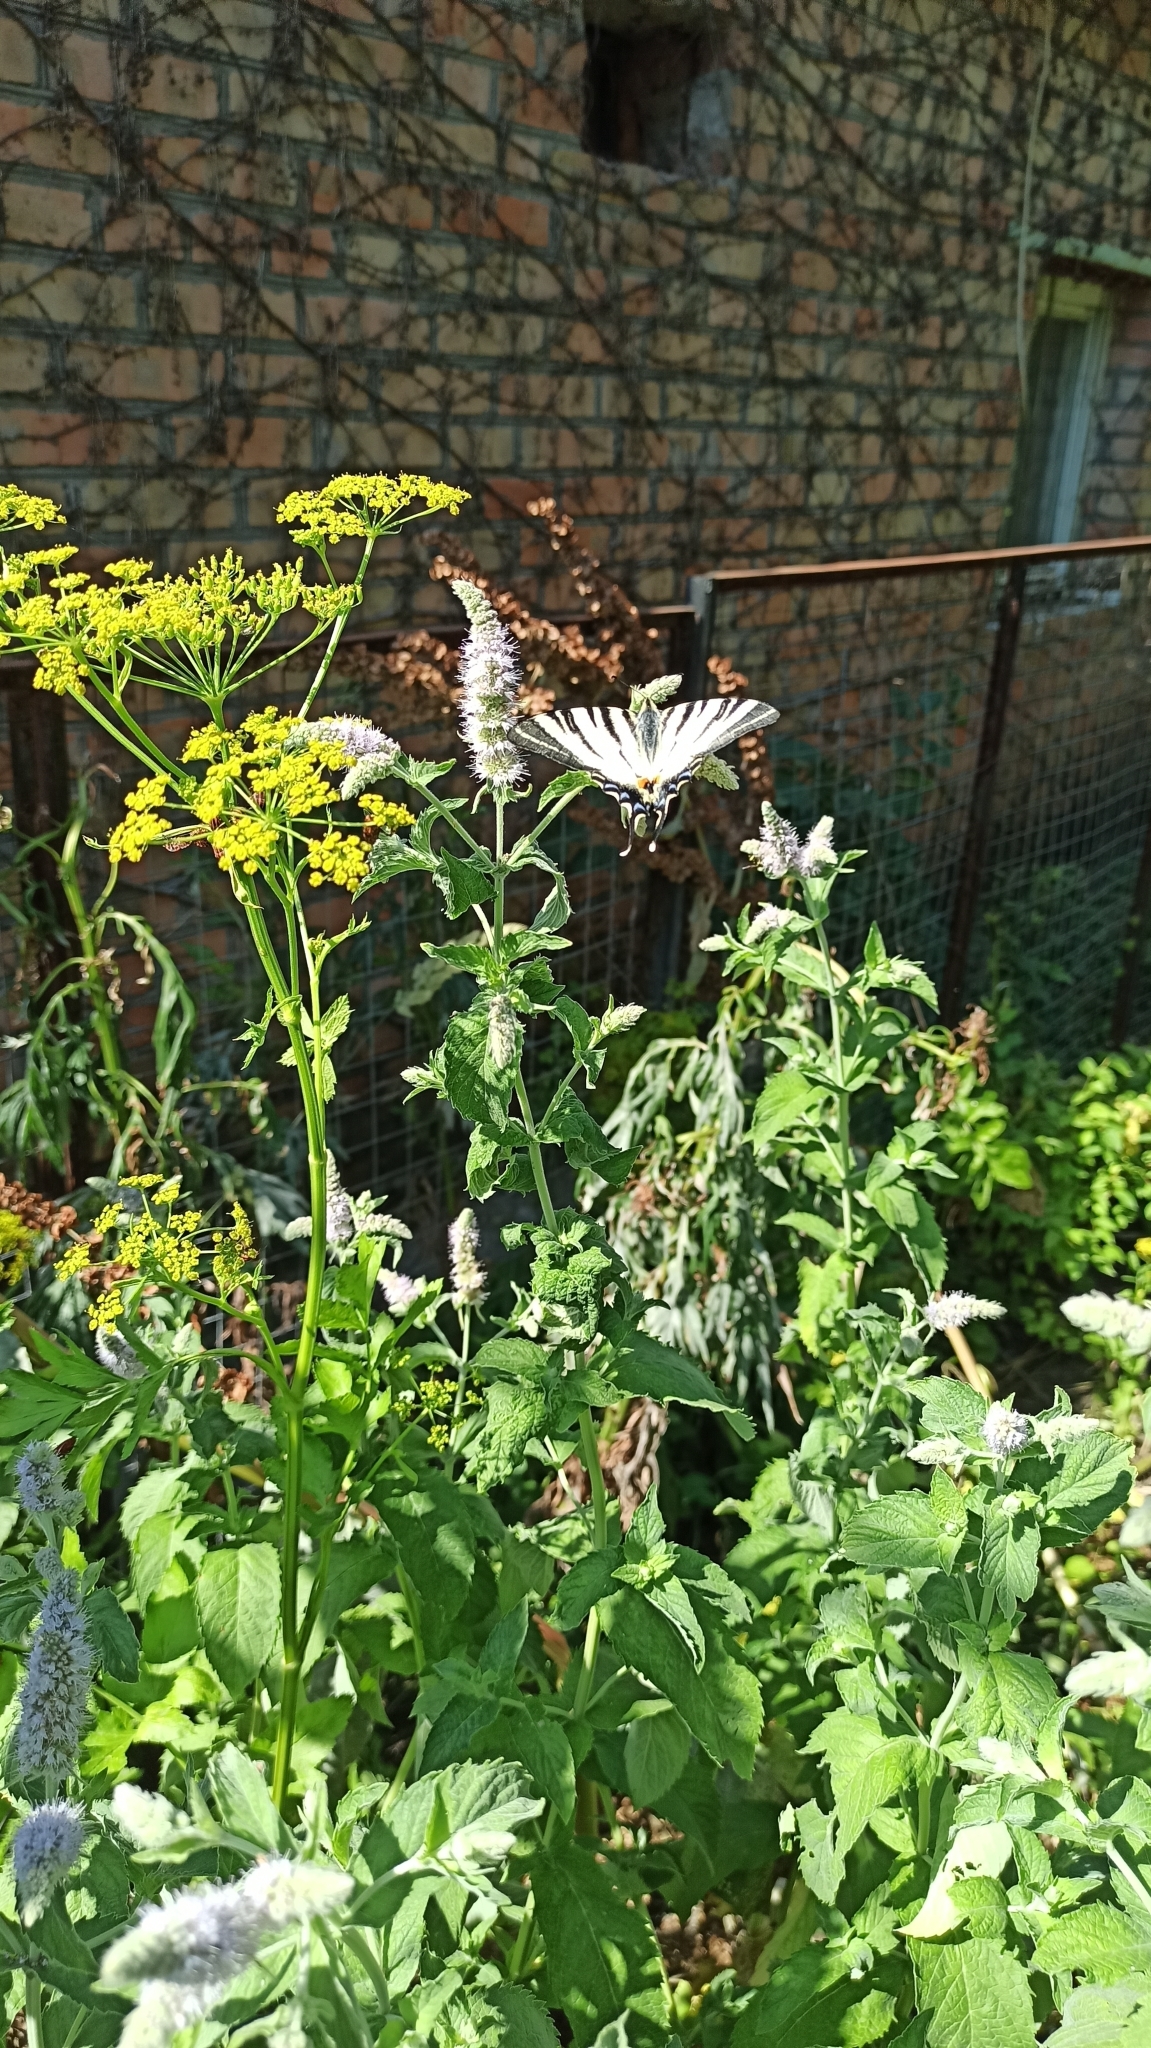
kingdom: Animalia
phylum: Arthropoda
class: Insecta
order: Lepidoptera
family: Papilionidae
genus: Iphiclides
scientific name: Iphiclides podalirius
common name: Scarce swallowtail
